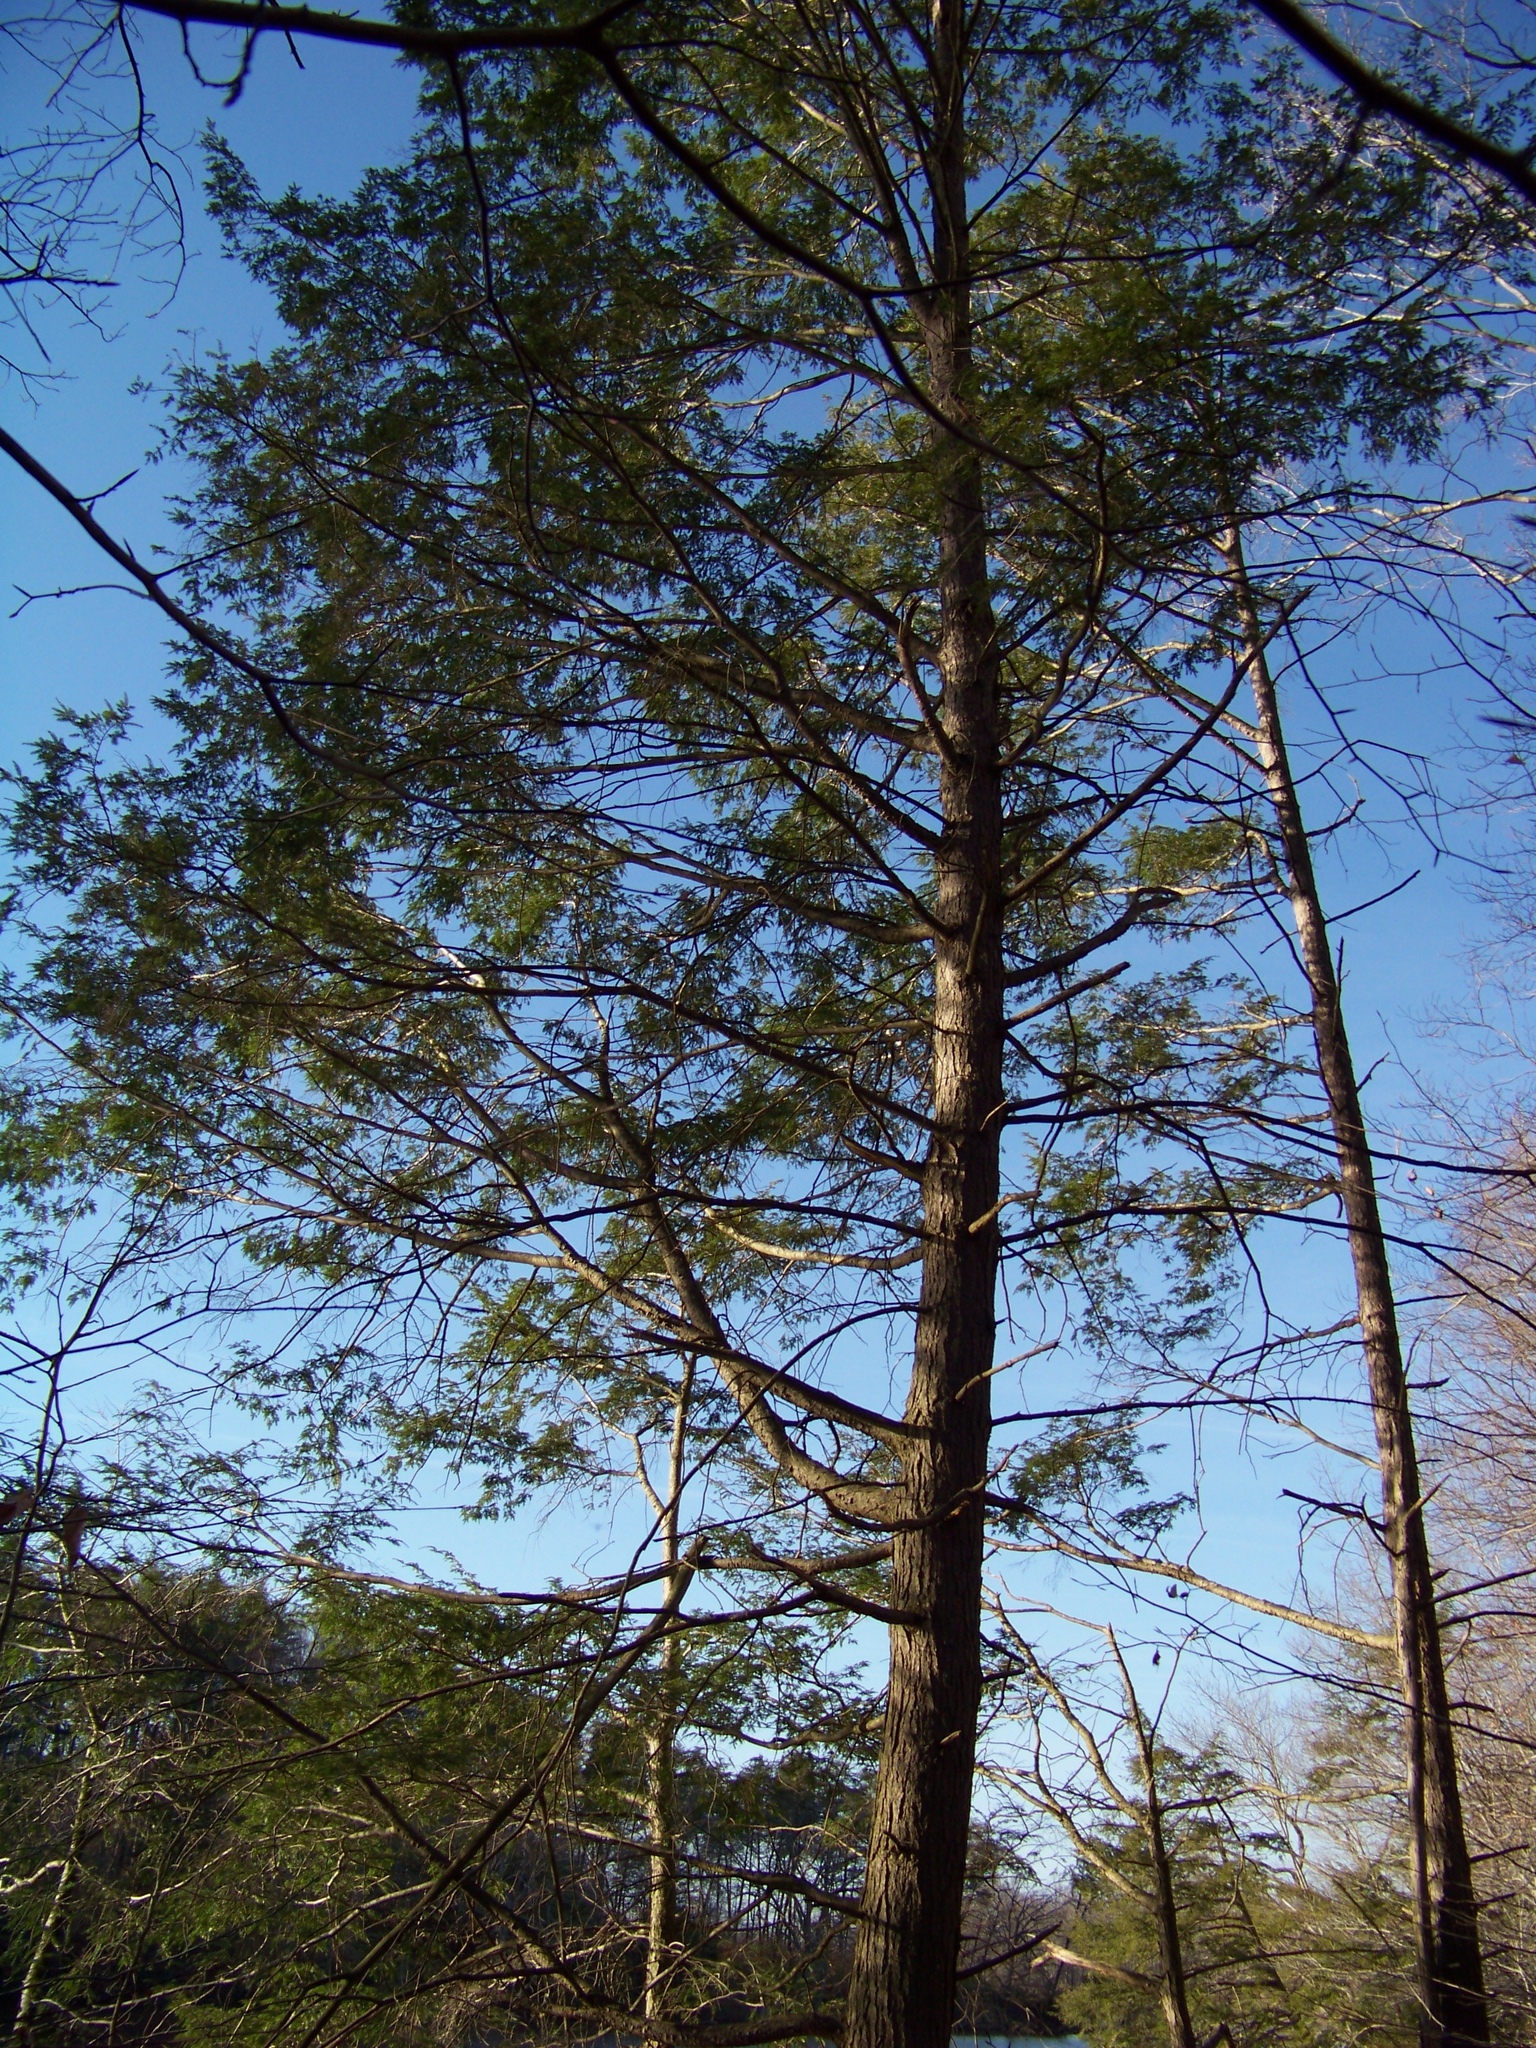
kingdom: Plantae
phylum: Tracheophyta
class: Pinopsida
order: Pinales
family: Pinaceae
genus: Tsuga
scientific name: Tsuga canadensis
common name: Eastern hemlock
